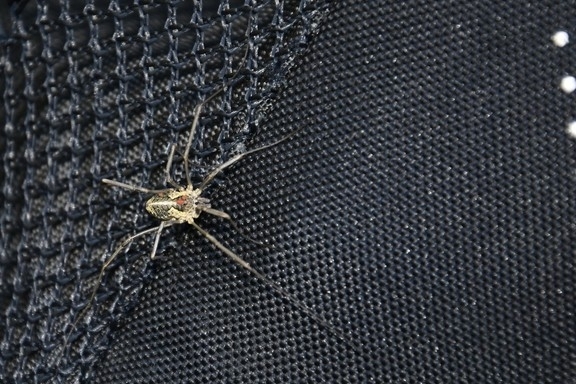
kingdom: Animalia
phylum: Arthropoda
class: Arachnida
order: Opiliones
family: Phalangiidae
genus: Mitopus
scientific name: Mitopus morio
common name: Saddleback harvestman
